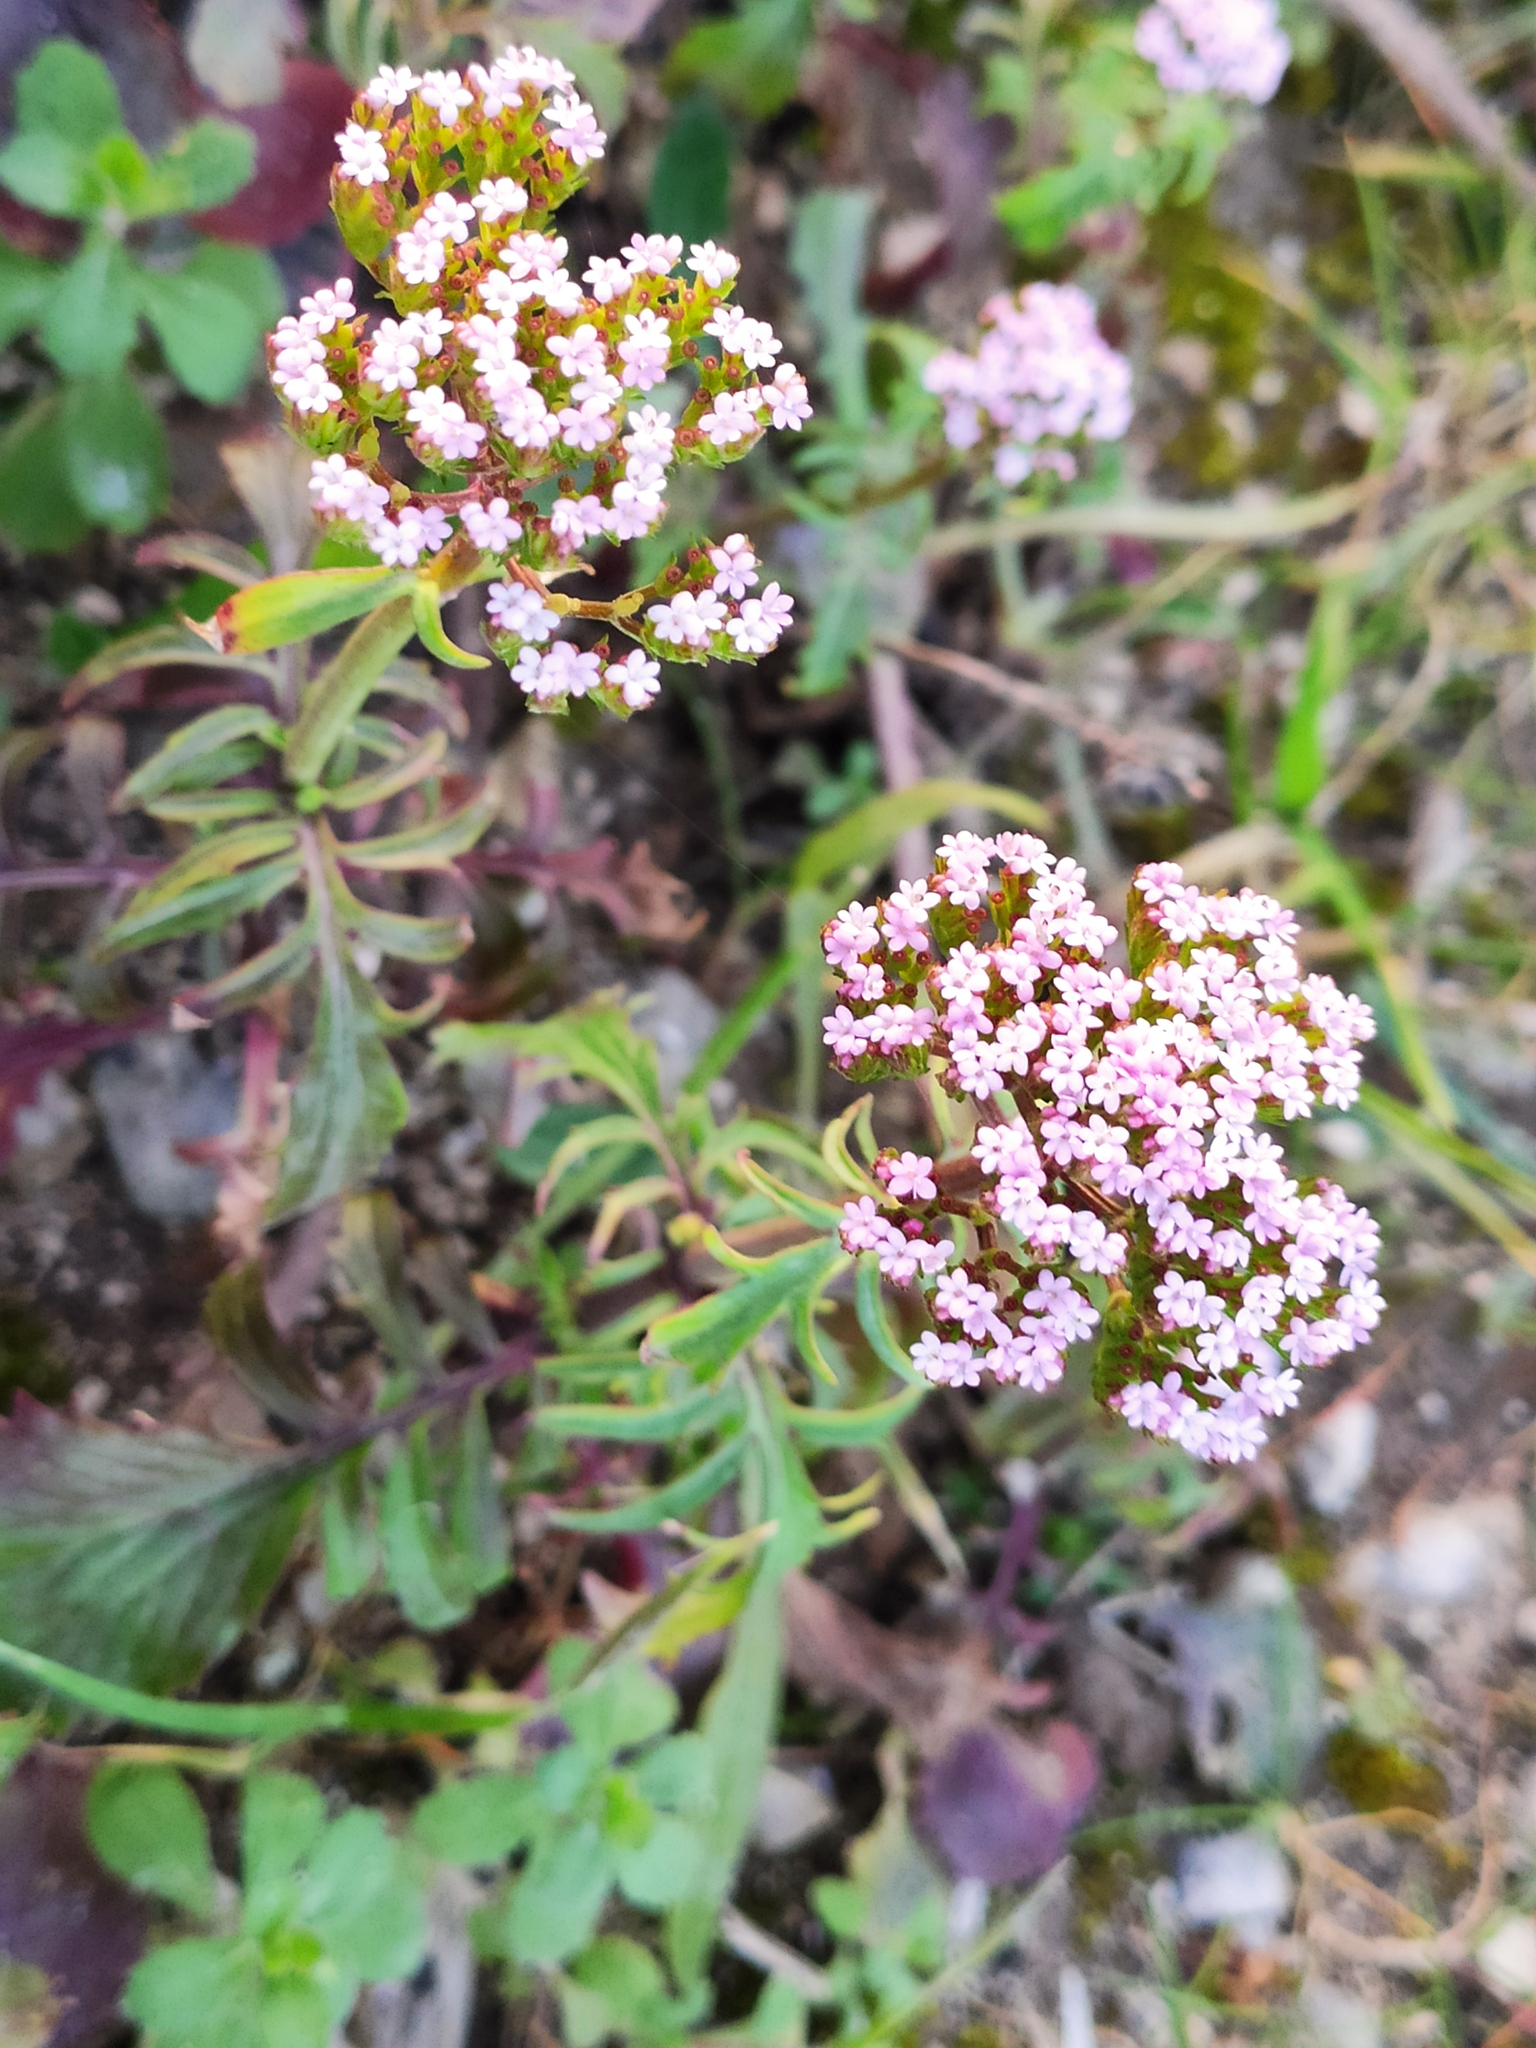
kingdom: Plantae
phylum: Tracheophyta
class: Magnoliopsida
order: Dipsacales
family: Caprifoliaceae
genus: Centranthus
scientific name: Centranthus calcitrapae
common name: Annual valerian
